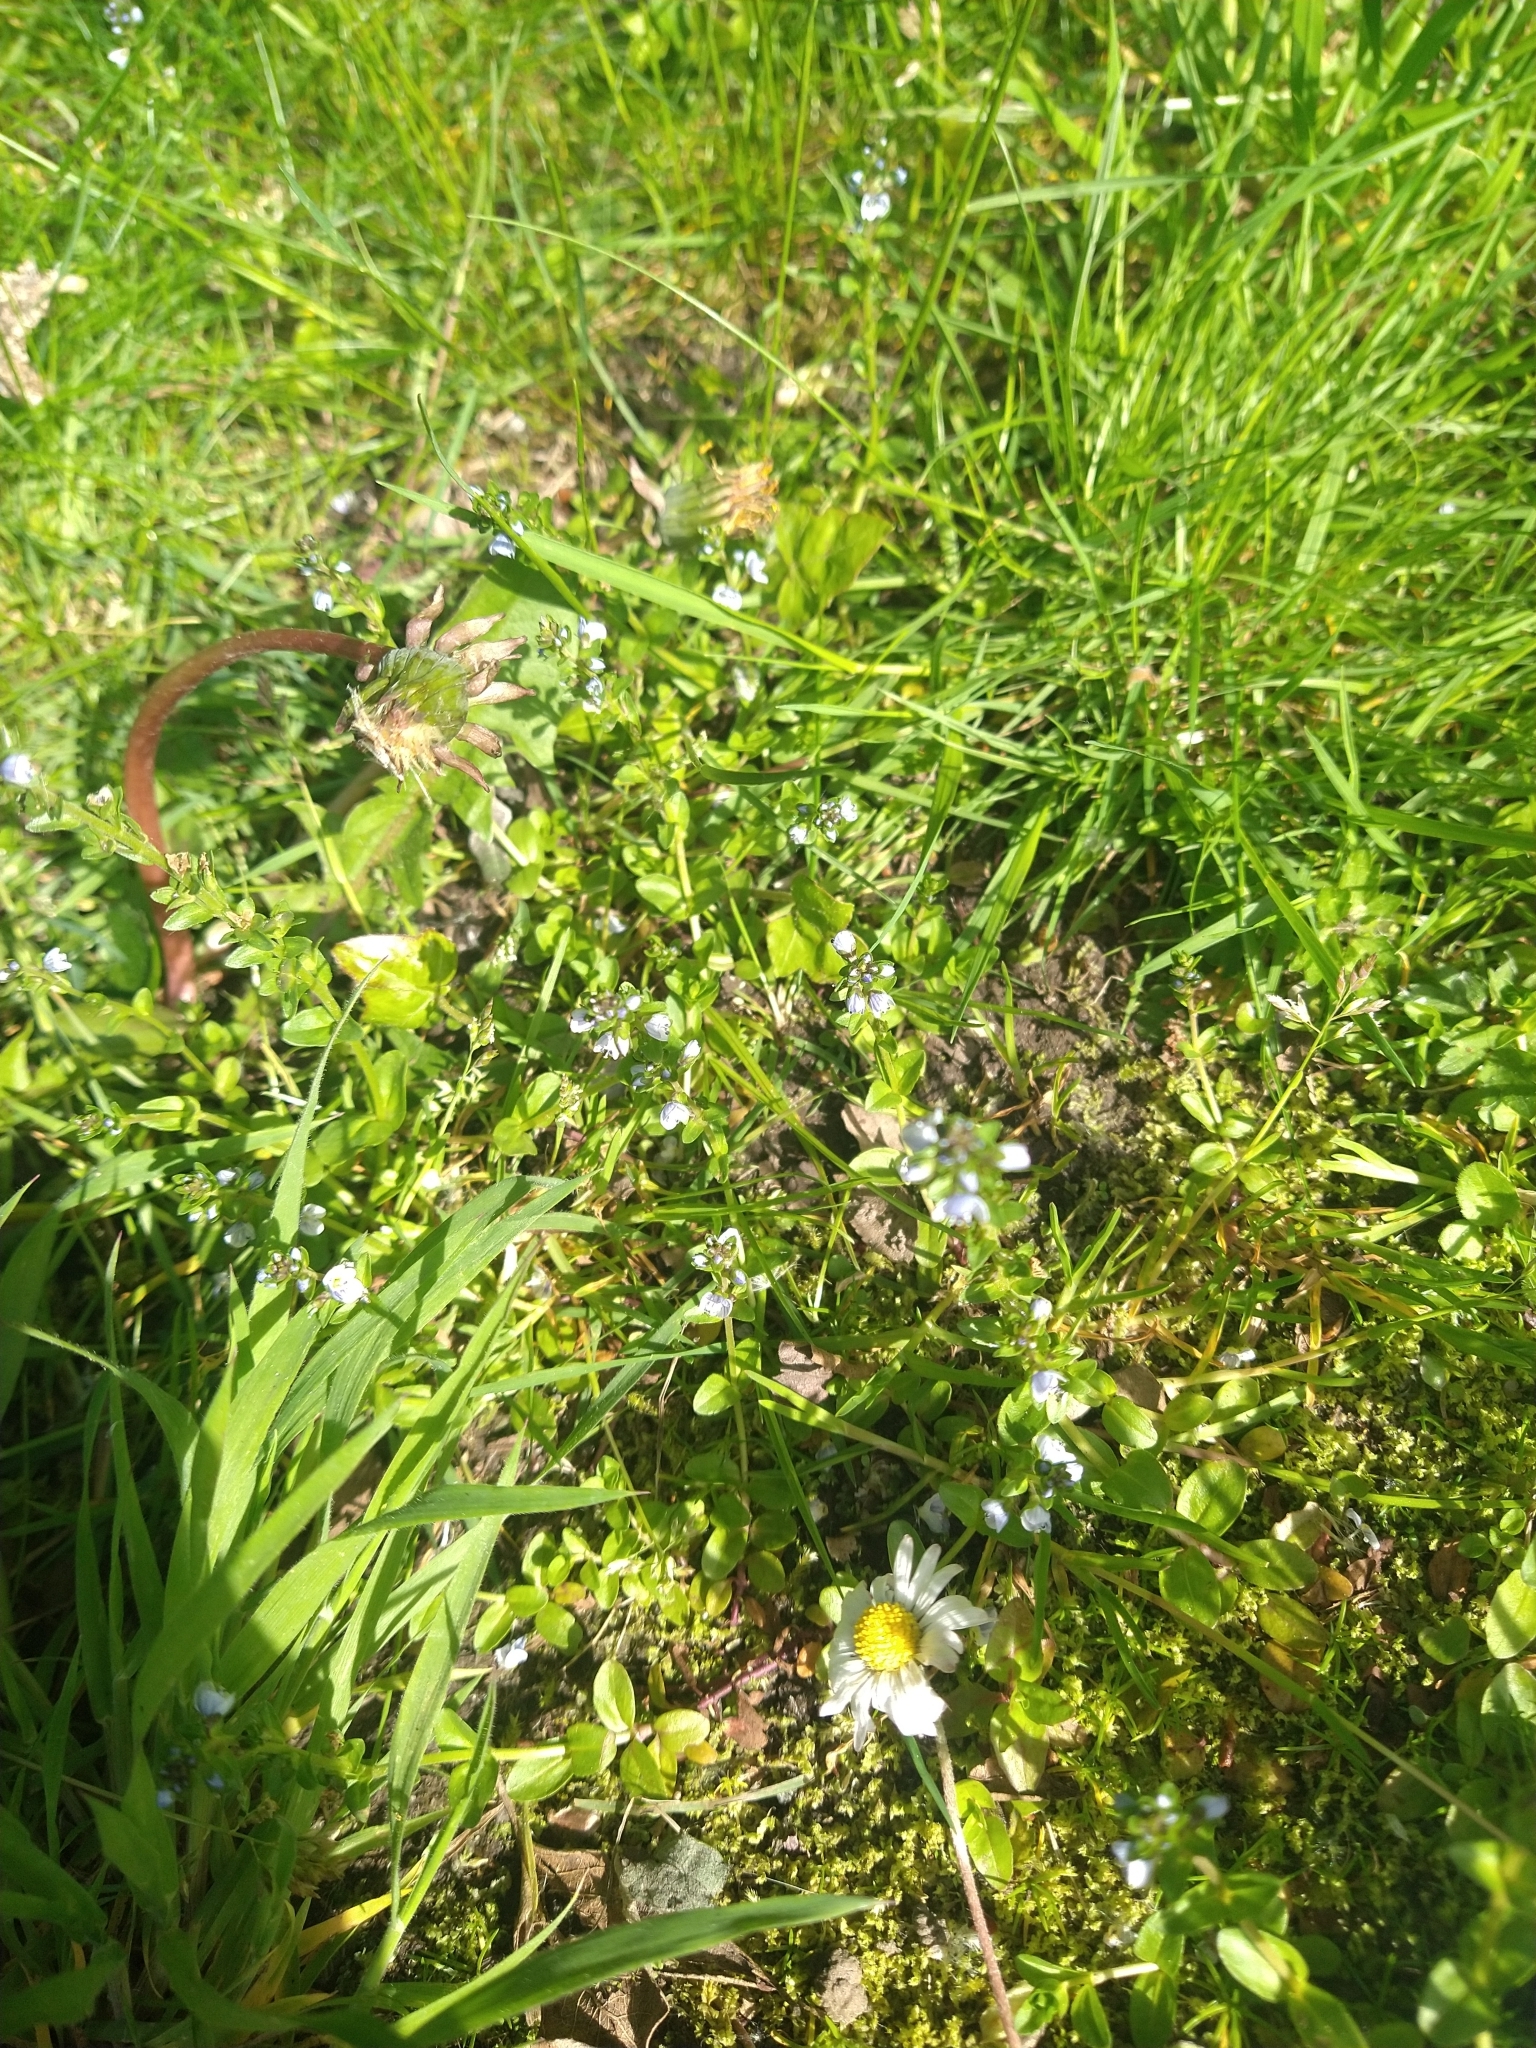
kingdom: Plantae
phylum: Tracheophyta
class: Magnoliopsida
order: Lamiales
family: Plantaginaceae
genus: Veronica
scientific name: Veronica serpyllifolia
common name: Thyme-leaved speedwell
